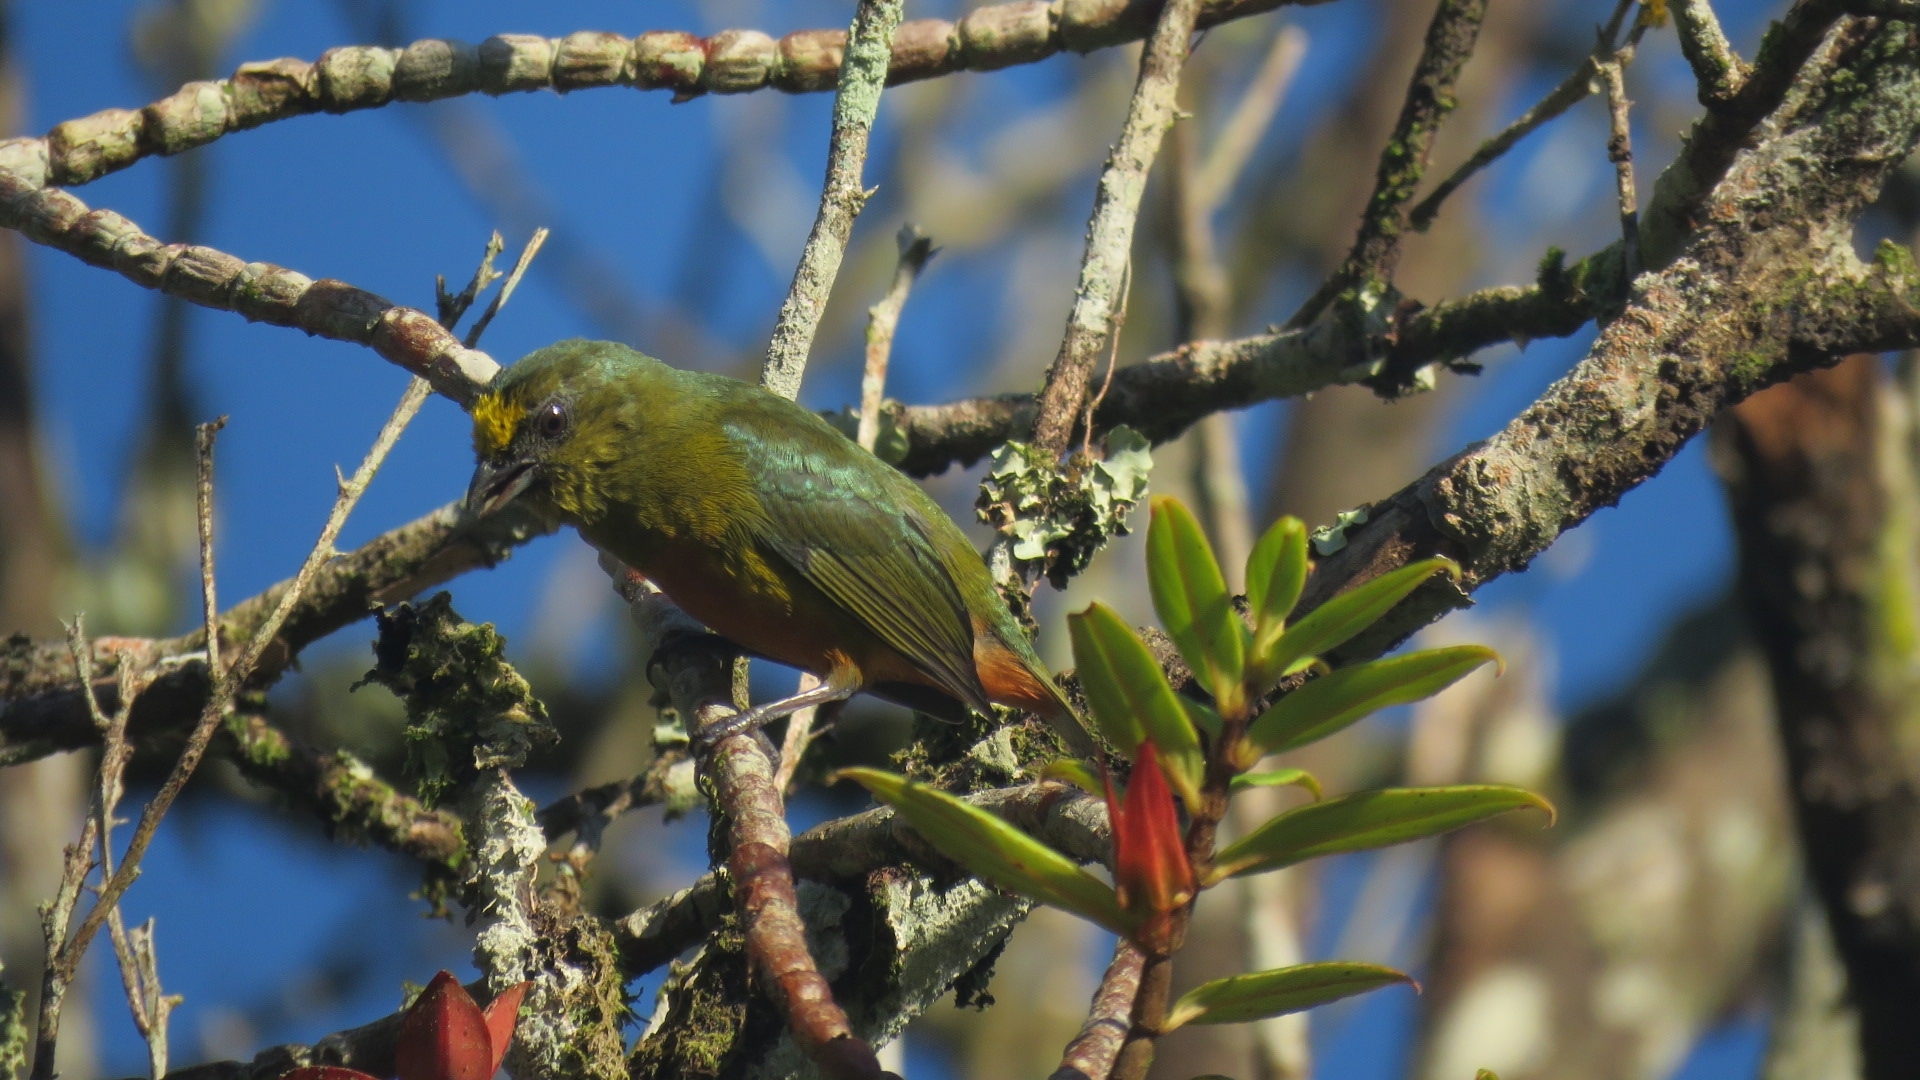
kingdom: Animalia
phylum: Chordata
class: Aves
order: Passeriformes
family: Fringillidae
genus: Euphonia
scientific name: Euphonia gouldi
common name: Olive-backed euphonia
